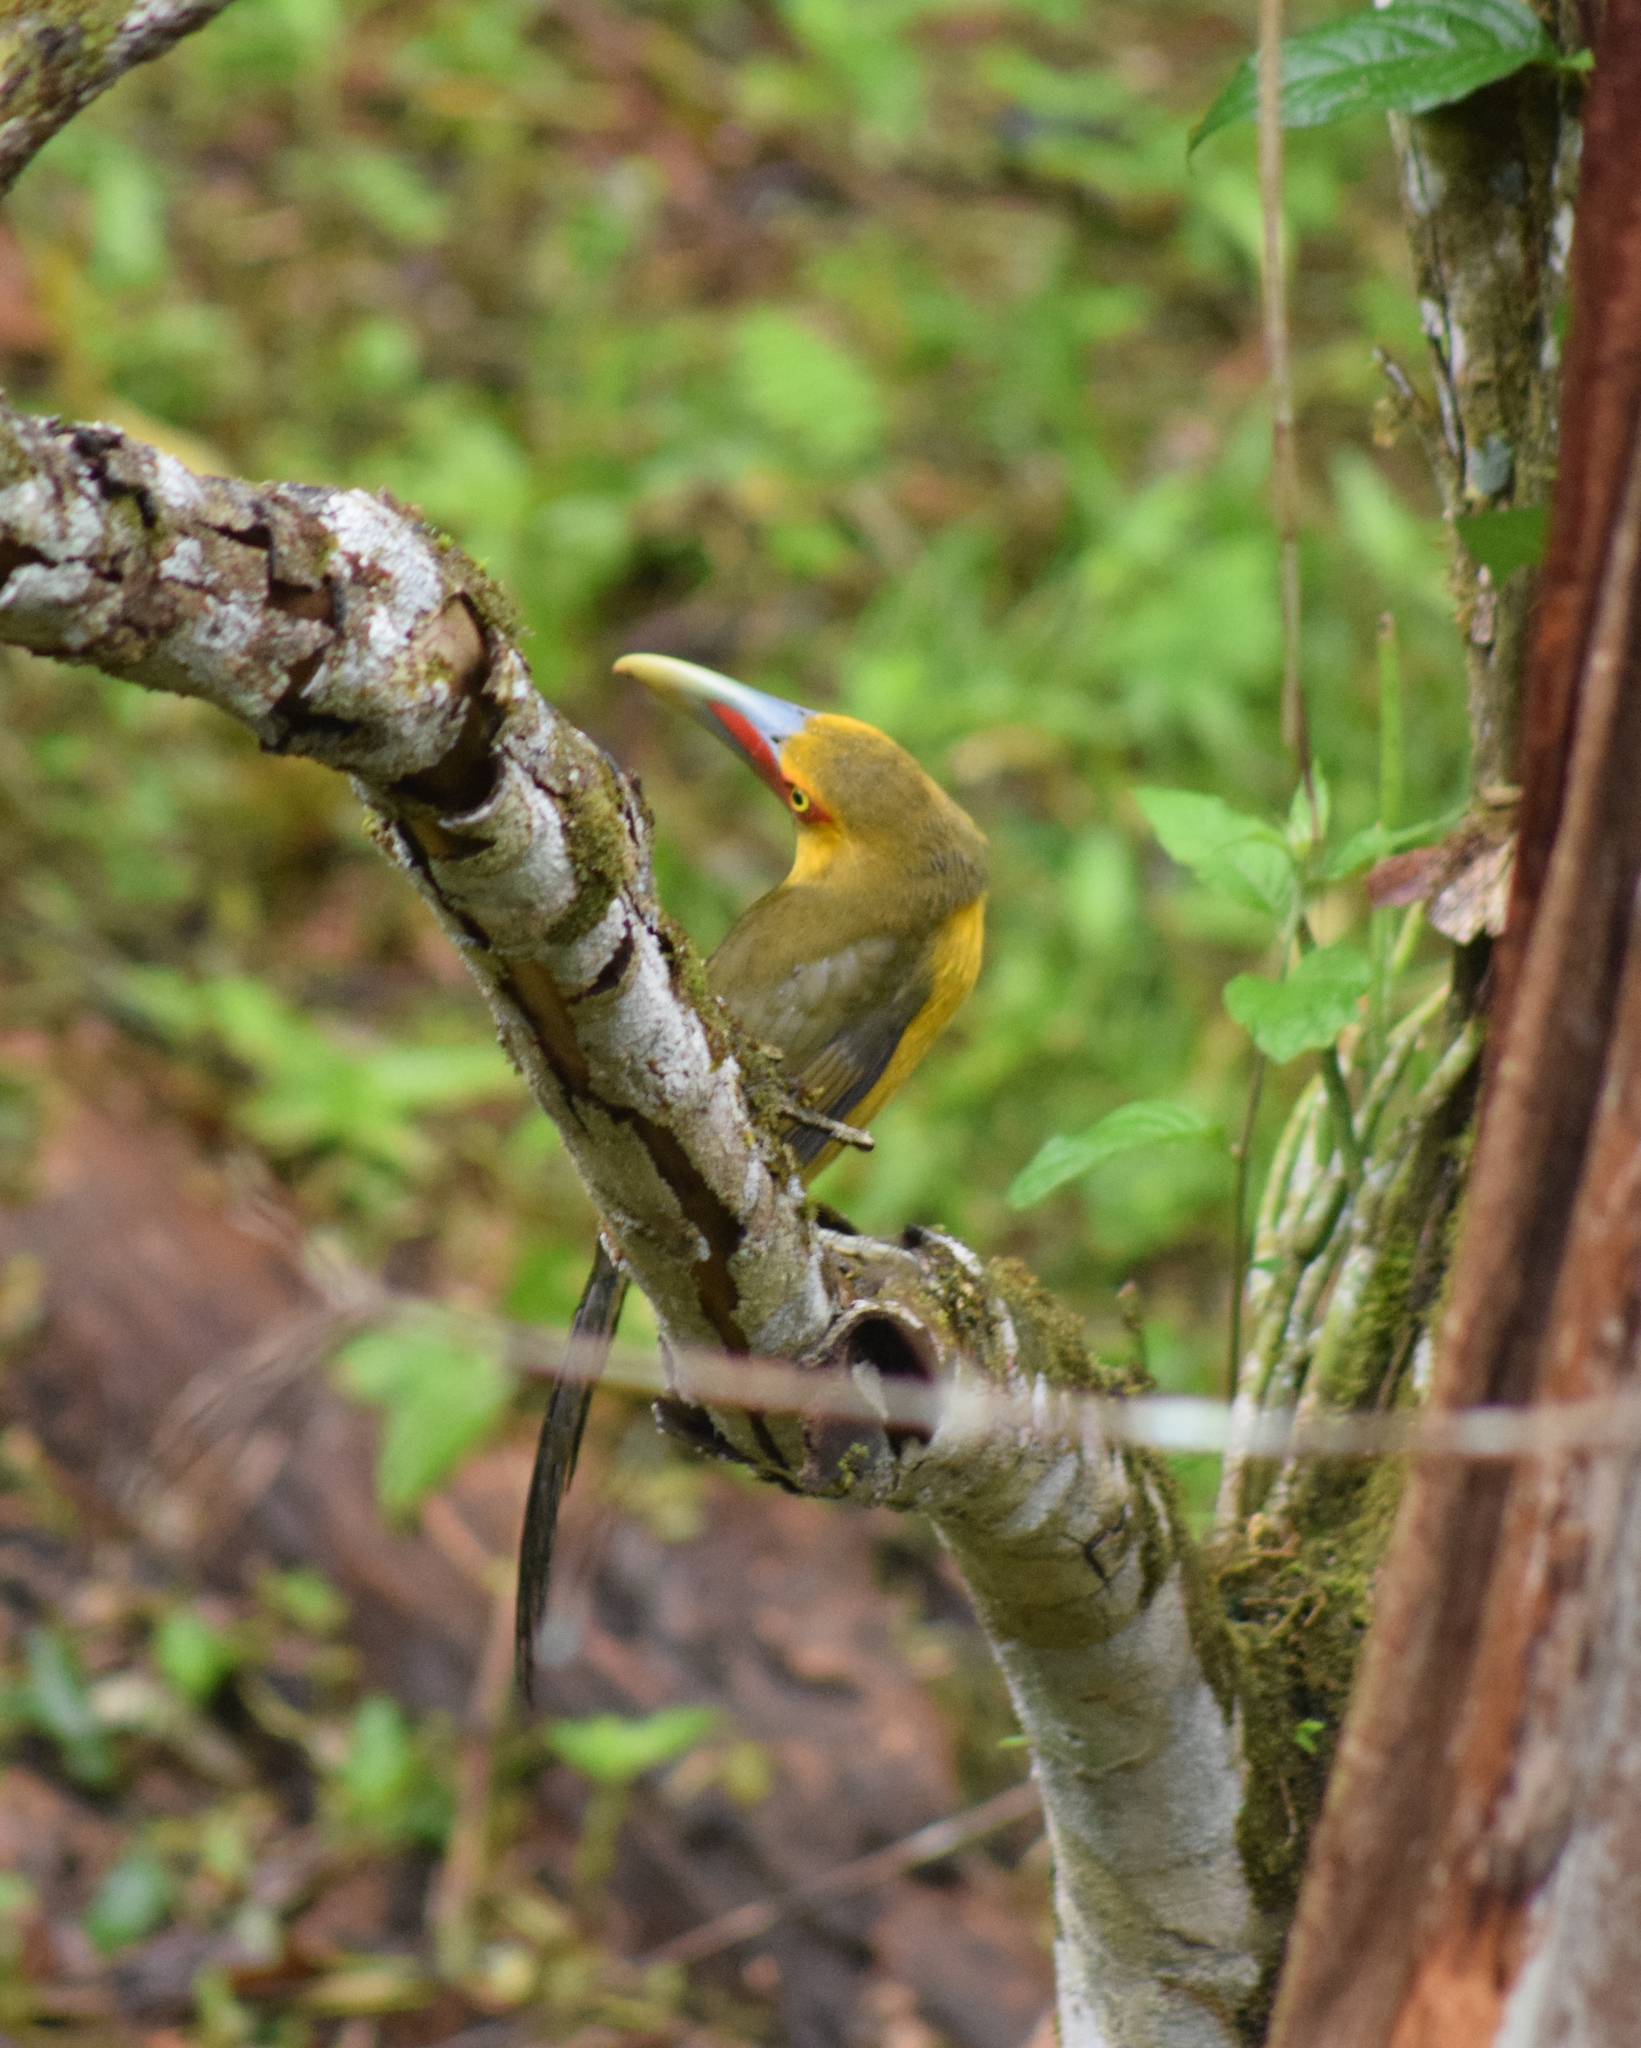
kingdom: Animalia
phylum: Chordata
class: Aves
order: Piciformes
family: Ramphastidae
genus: Pteroglossus
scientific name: Pteroglossus bailloni
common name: Saffron toucanet
